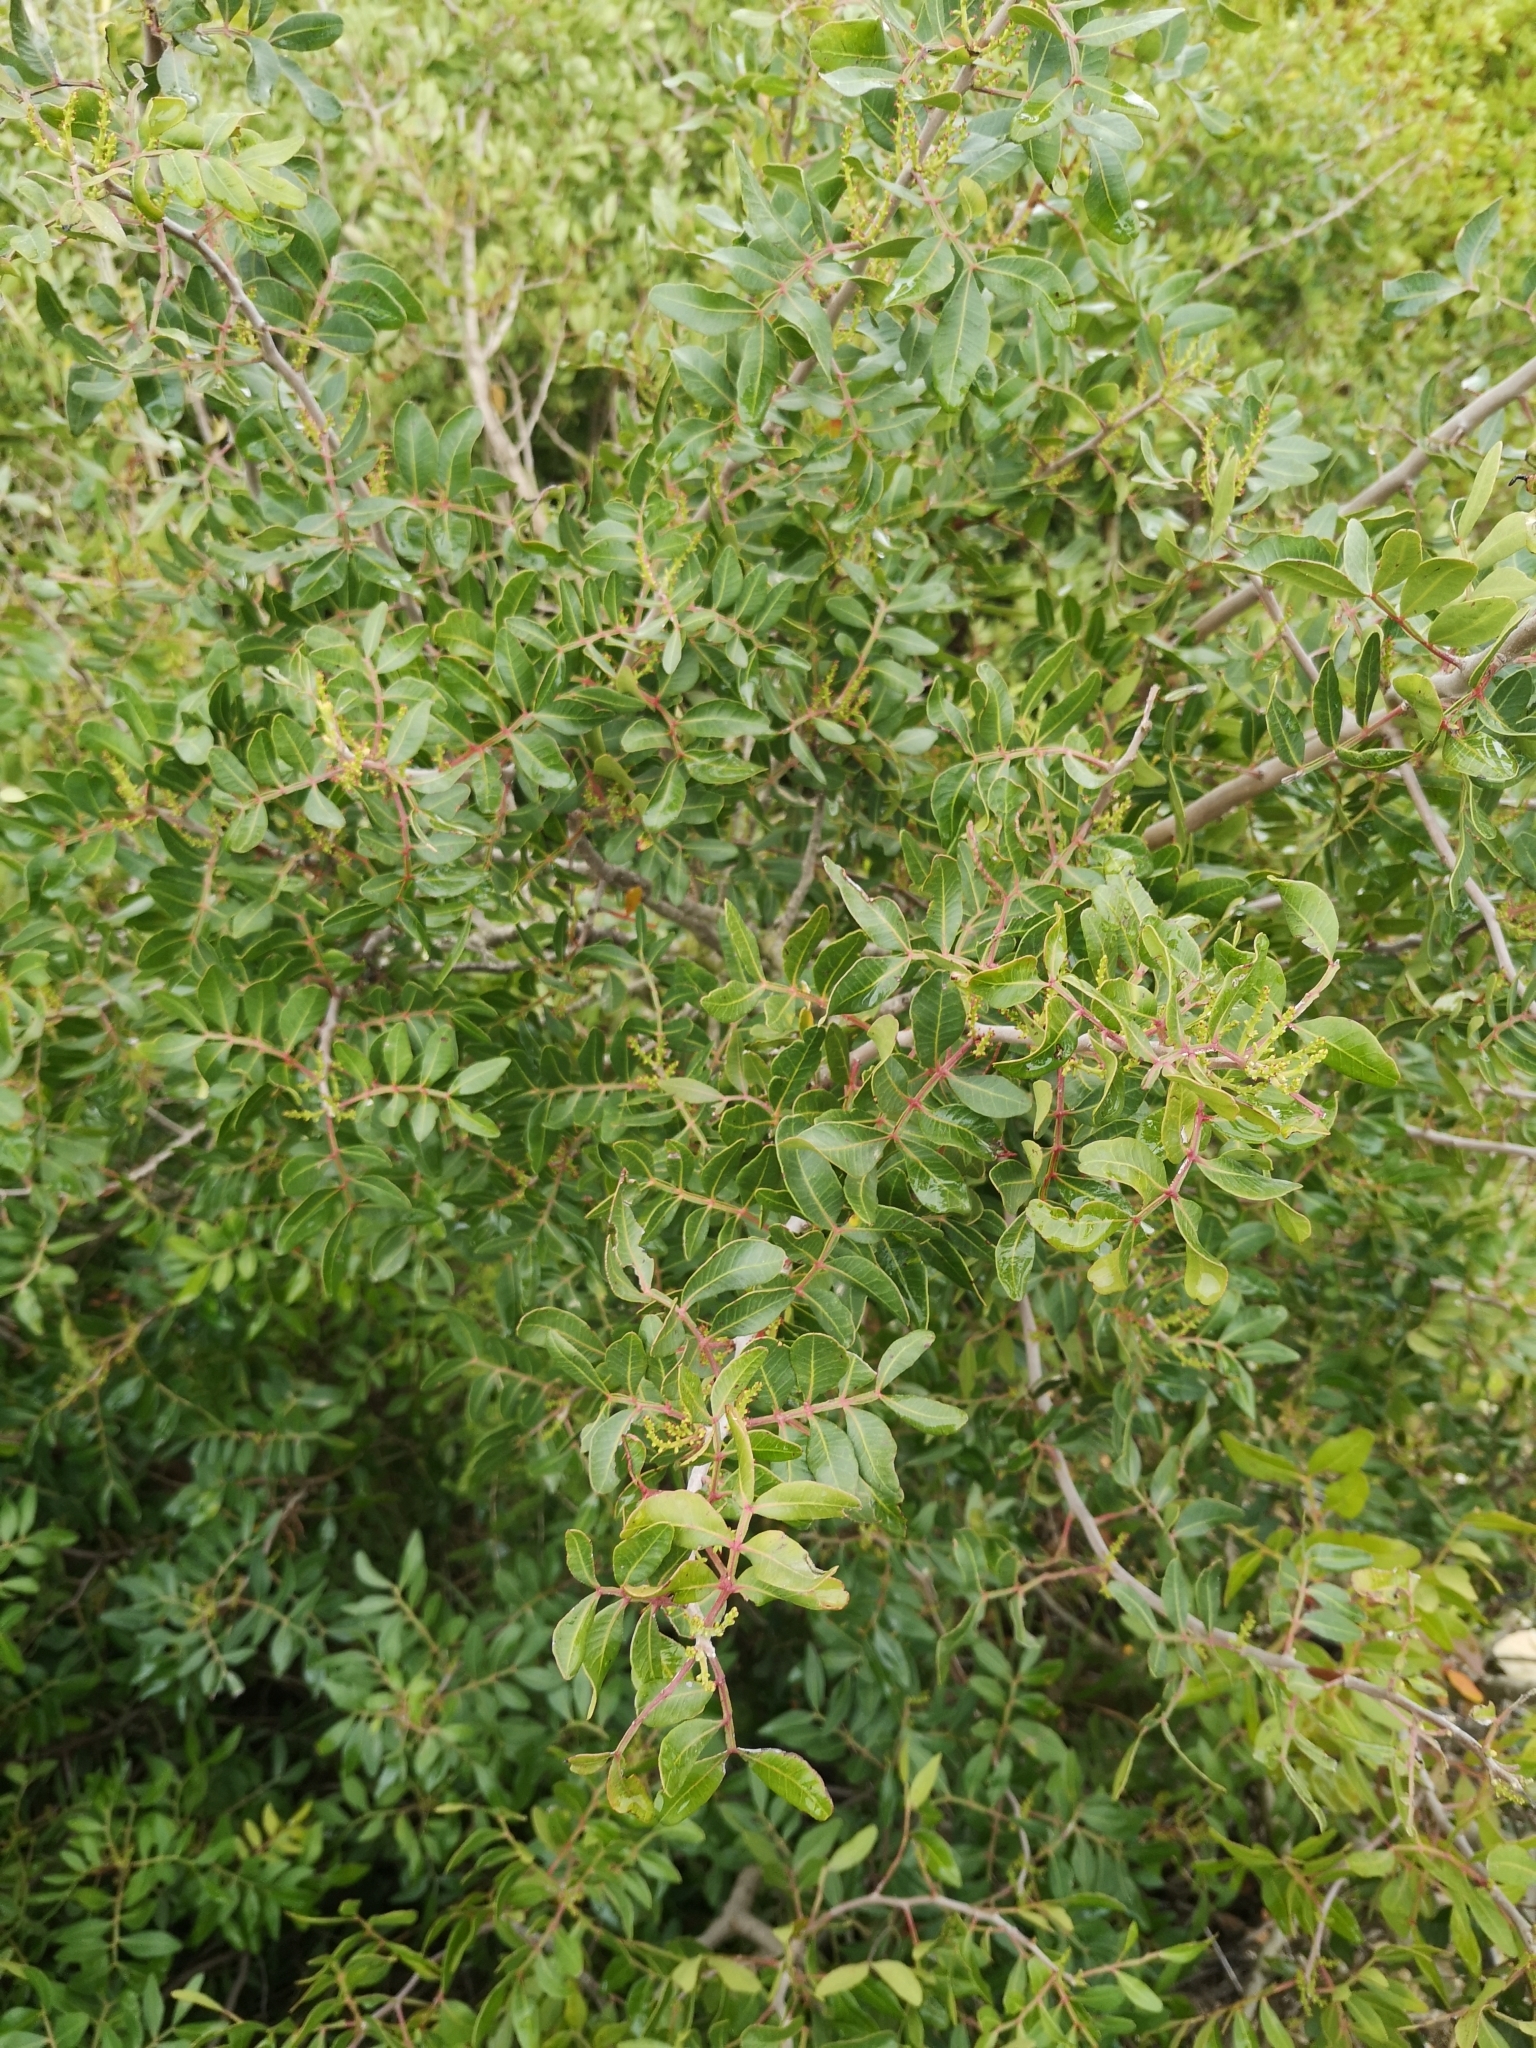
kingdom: Plantae
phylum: Tracheophyta
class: Magnoliopsida
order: Sapindales
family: Anacardiaceae
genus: Pistacia
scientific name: Pistacia lentiscus
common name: Lentisk
